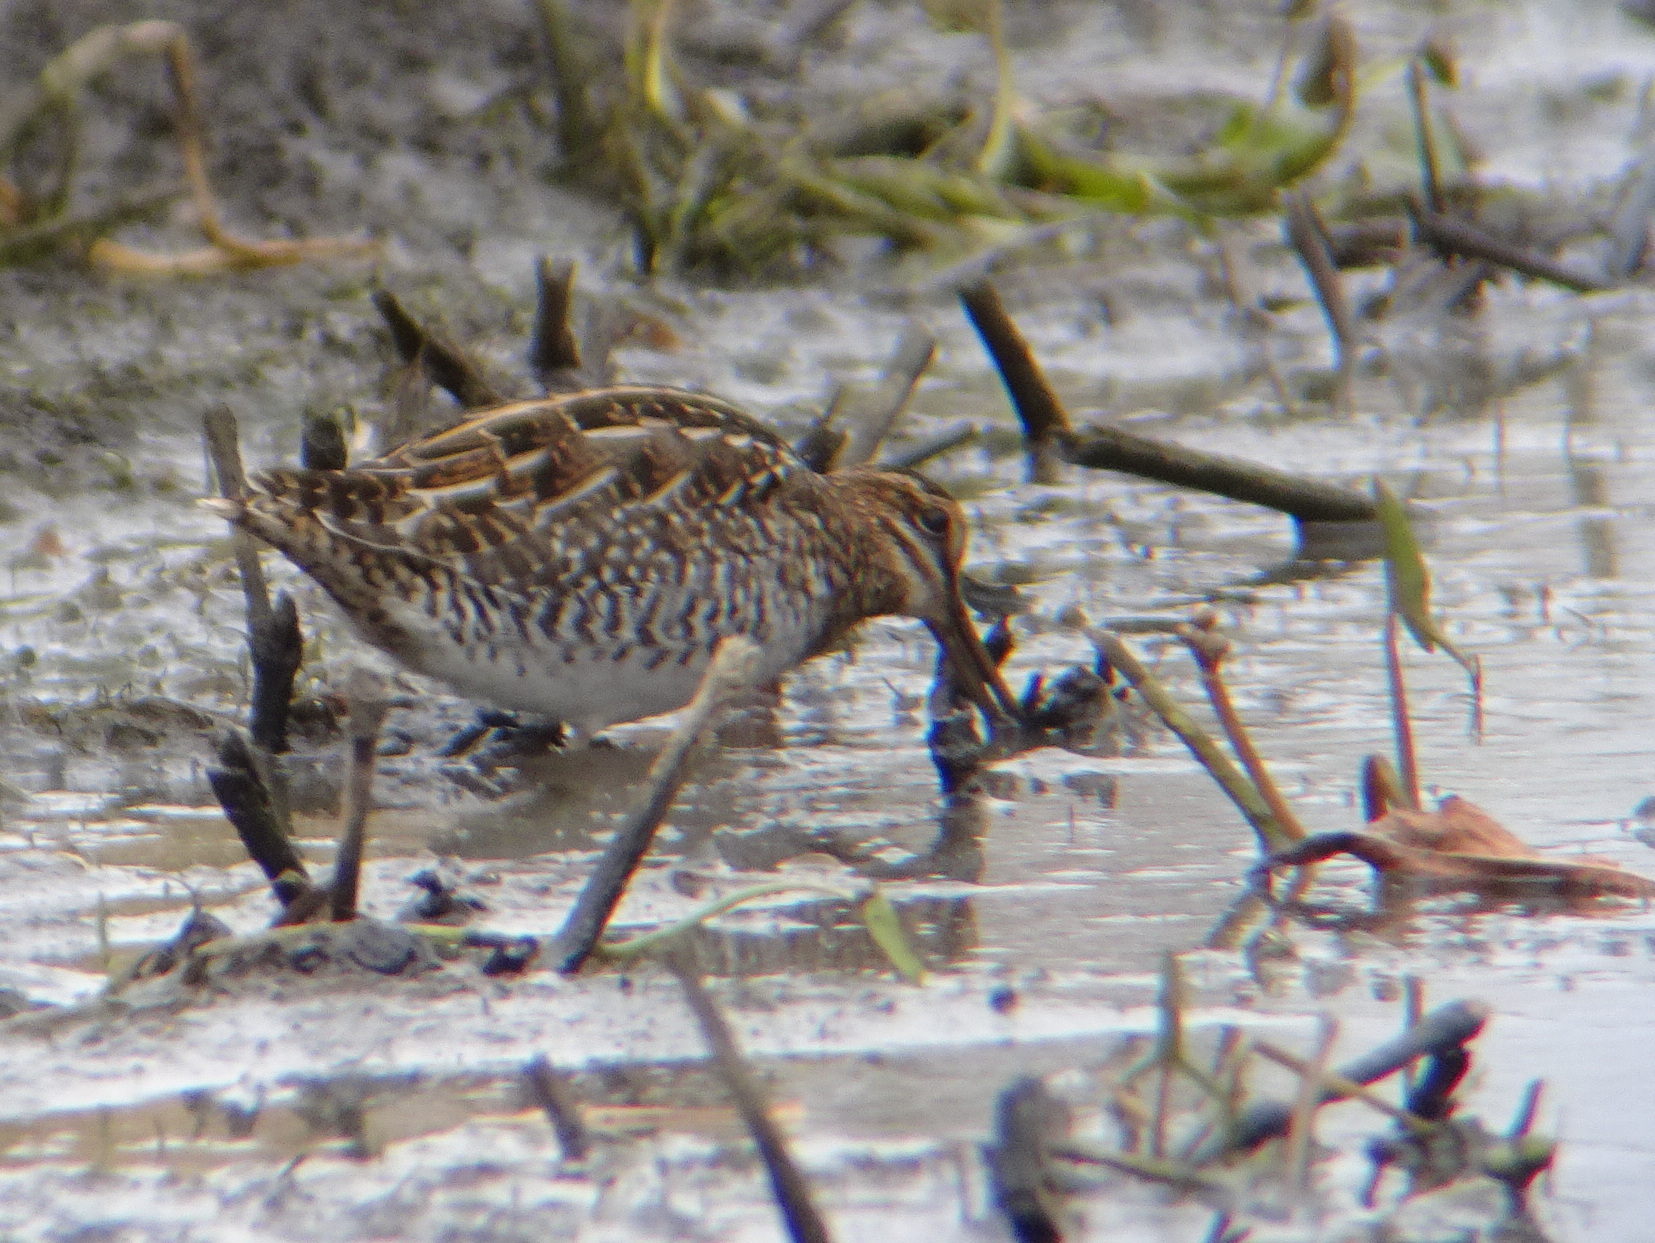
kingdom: Animalia
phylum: Chordata
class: Aves
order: Charadriiformes
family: Scolopacidae
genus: Gallinago
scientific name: Gallinago delicata
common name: Wilson's snipe
